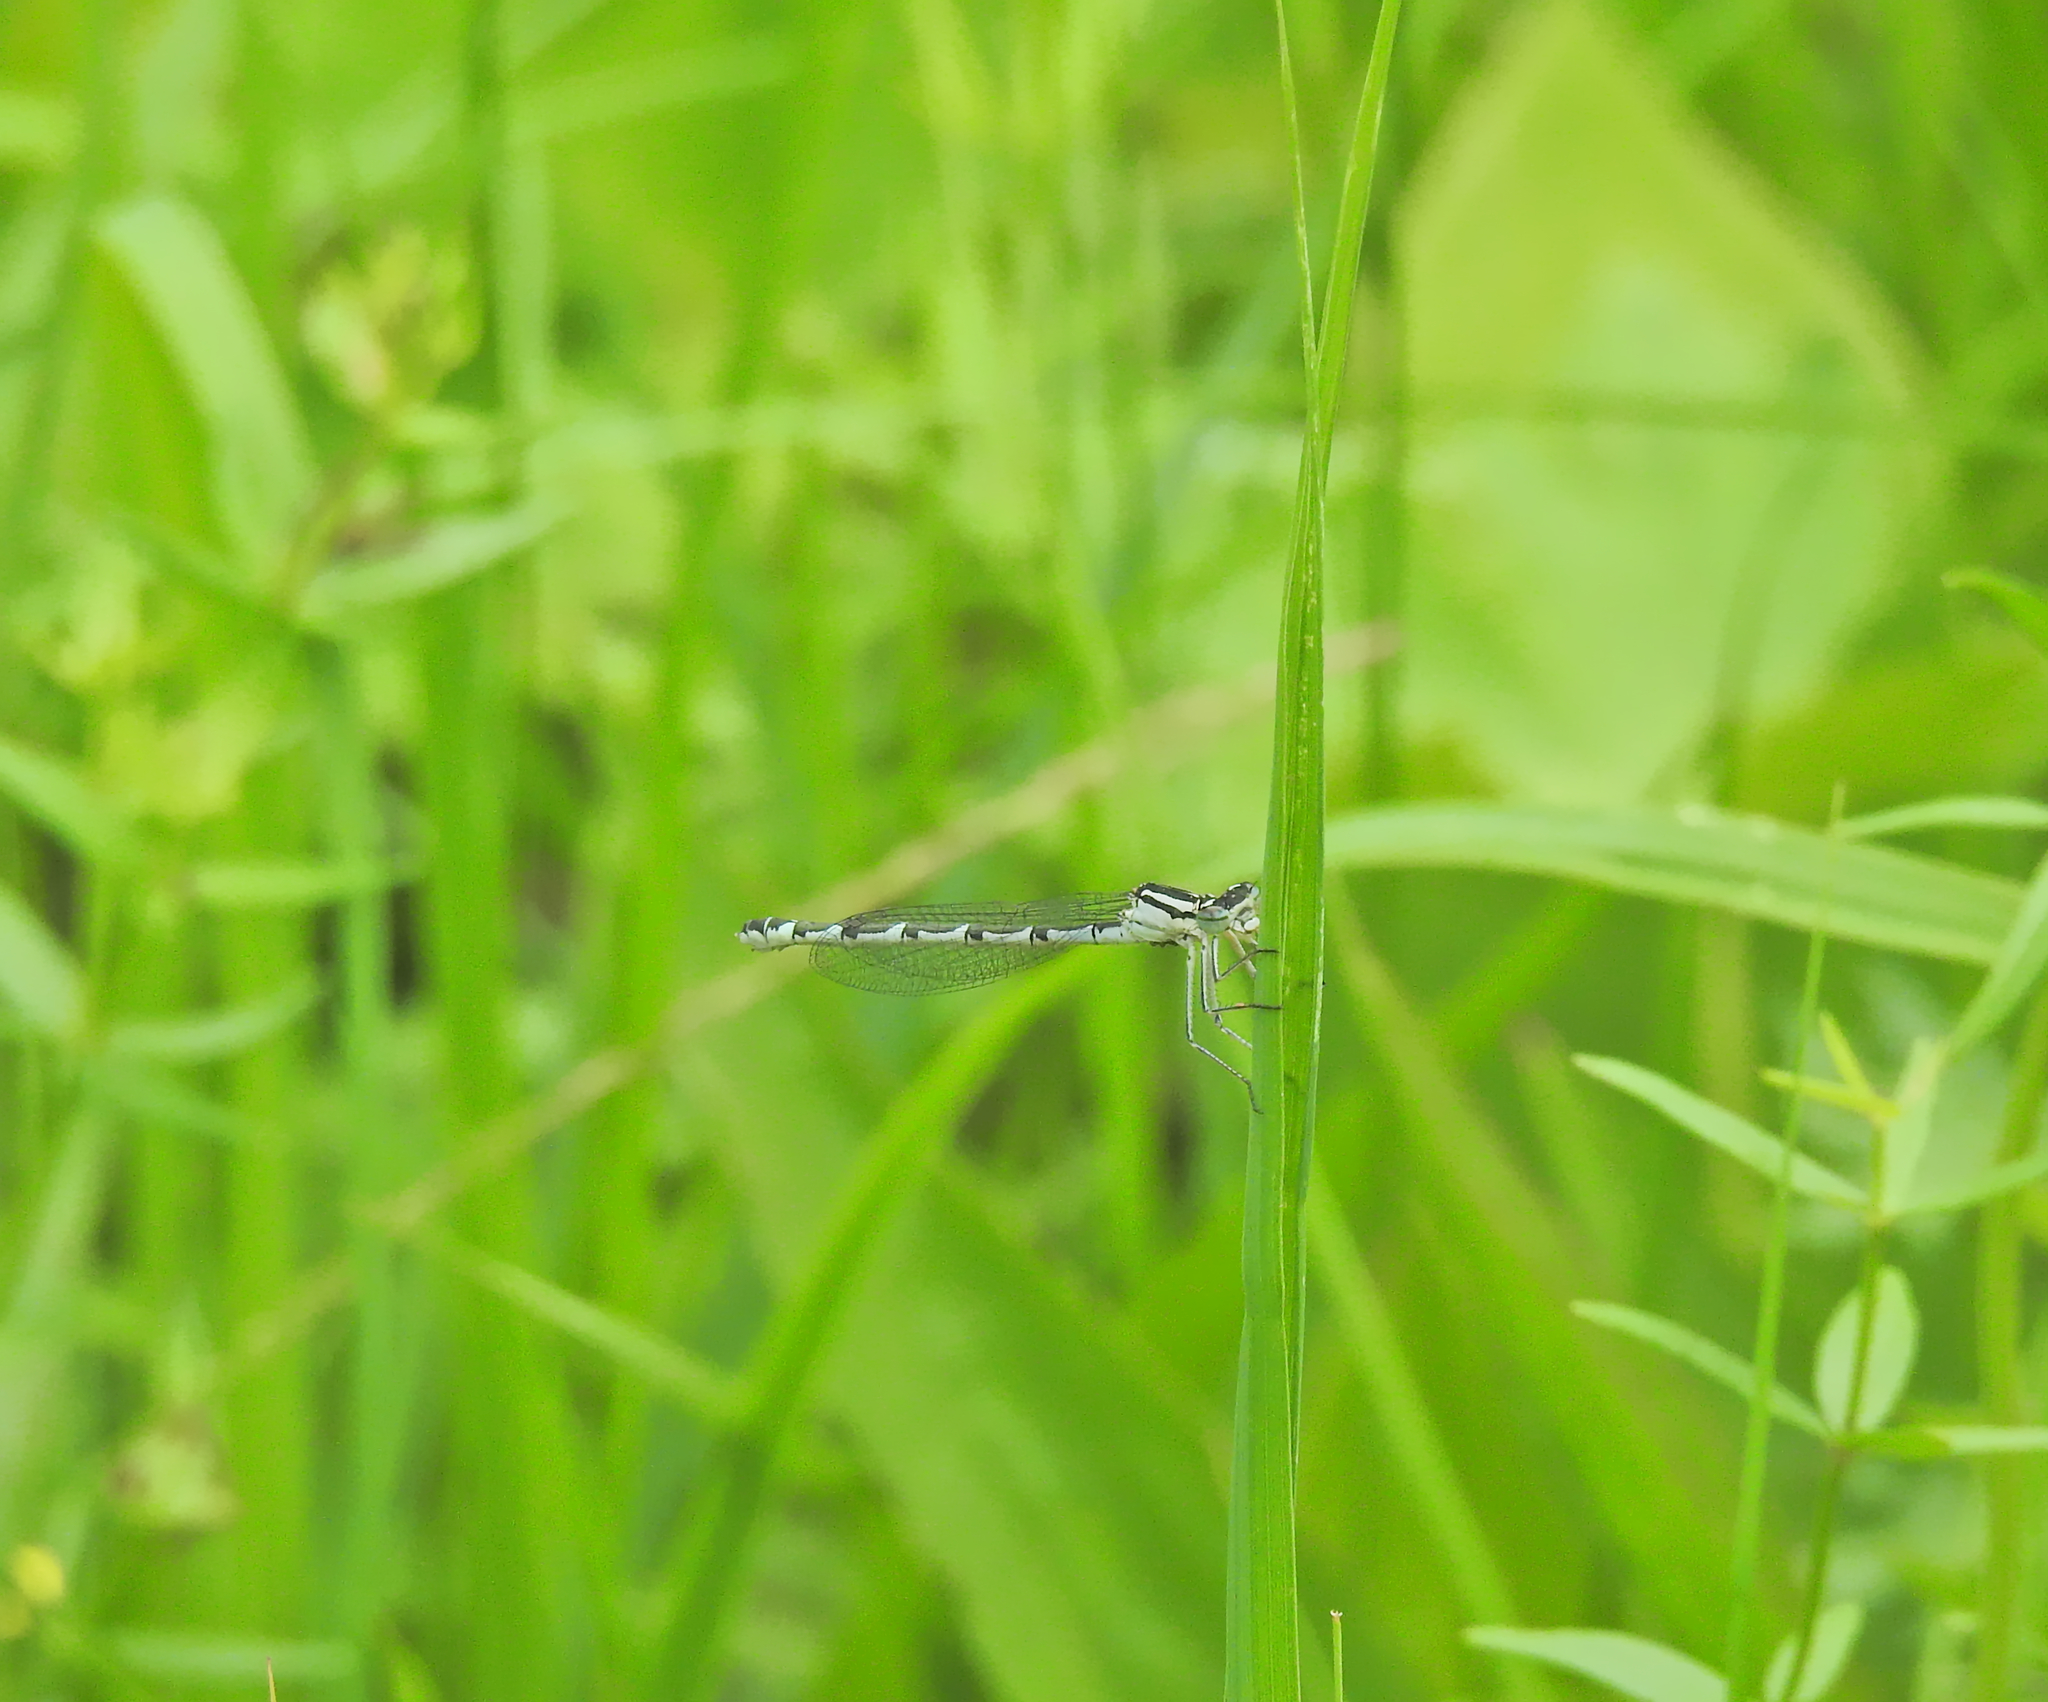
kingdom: Animalia
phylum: Arthropoda
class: Insecta
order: Odonata
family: Coenagrionidae
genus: Enallagma
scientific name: Enallagma cyathigerum
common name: Common blue damselfly
